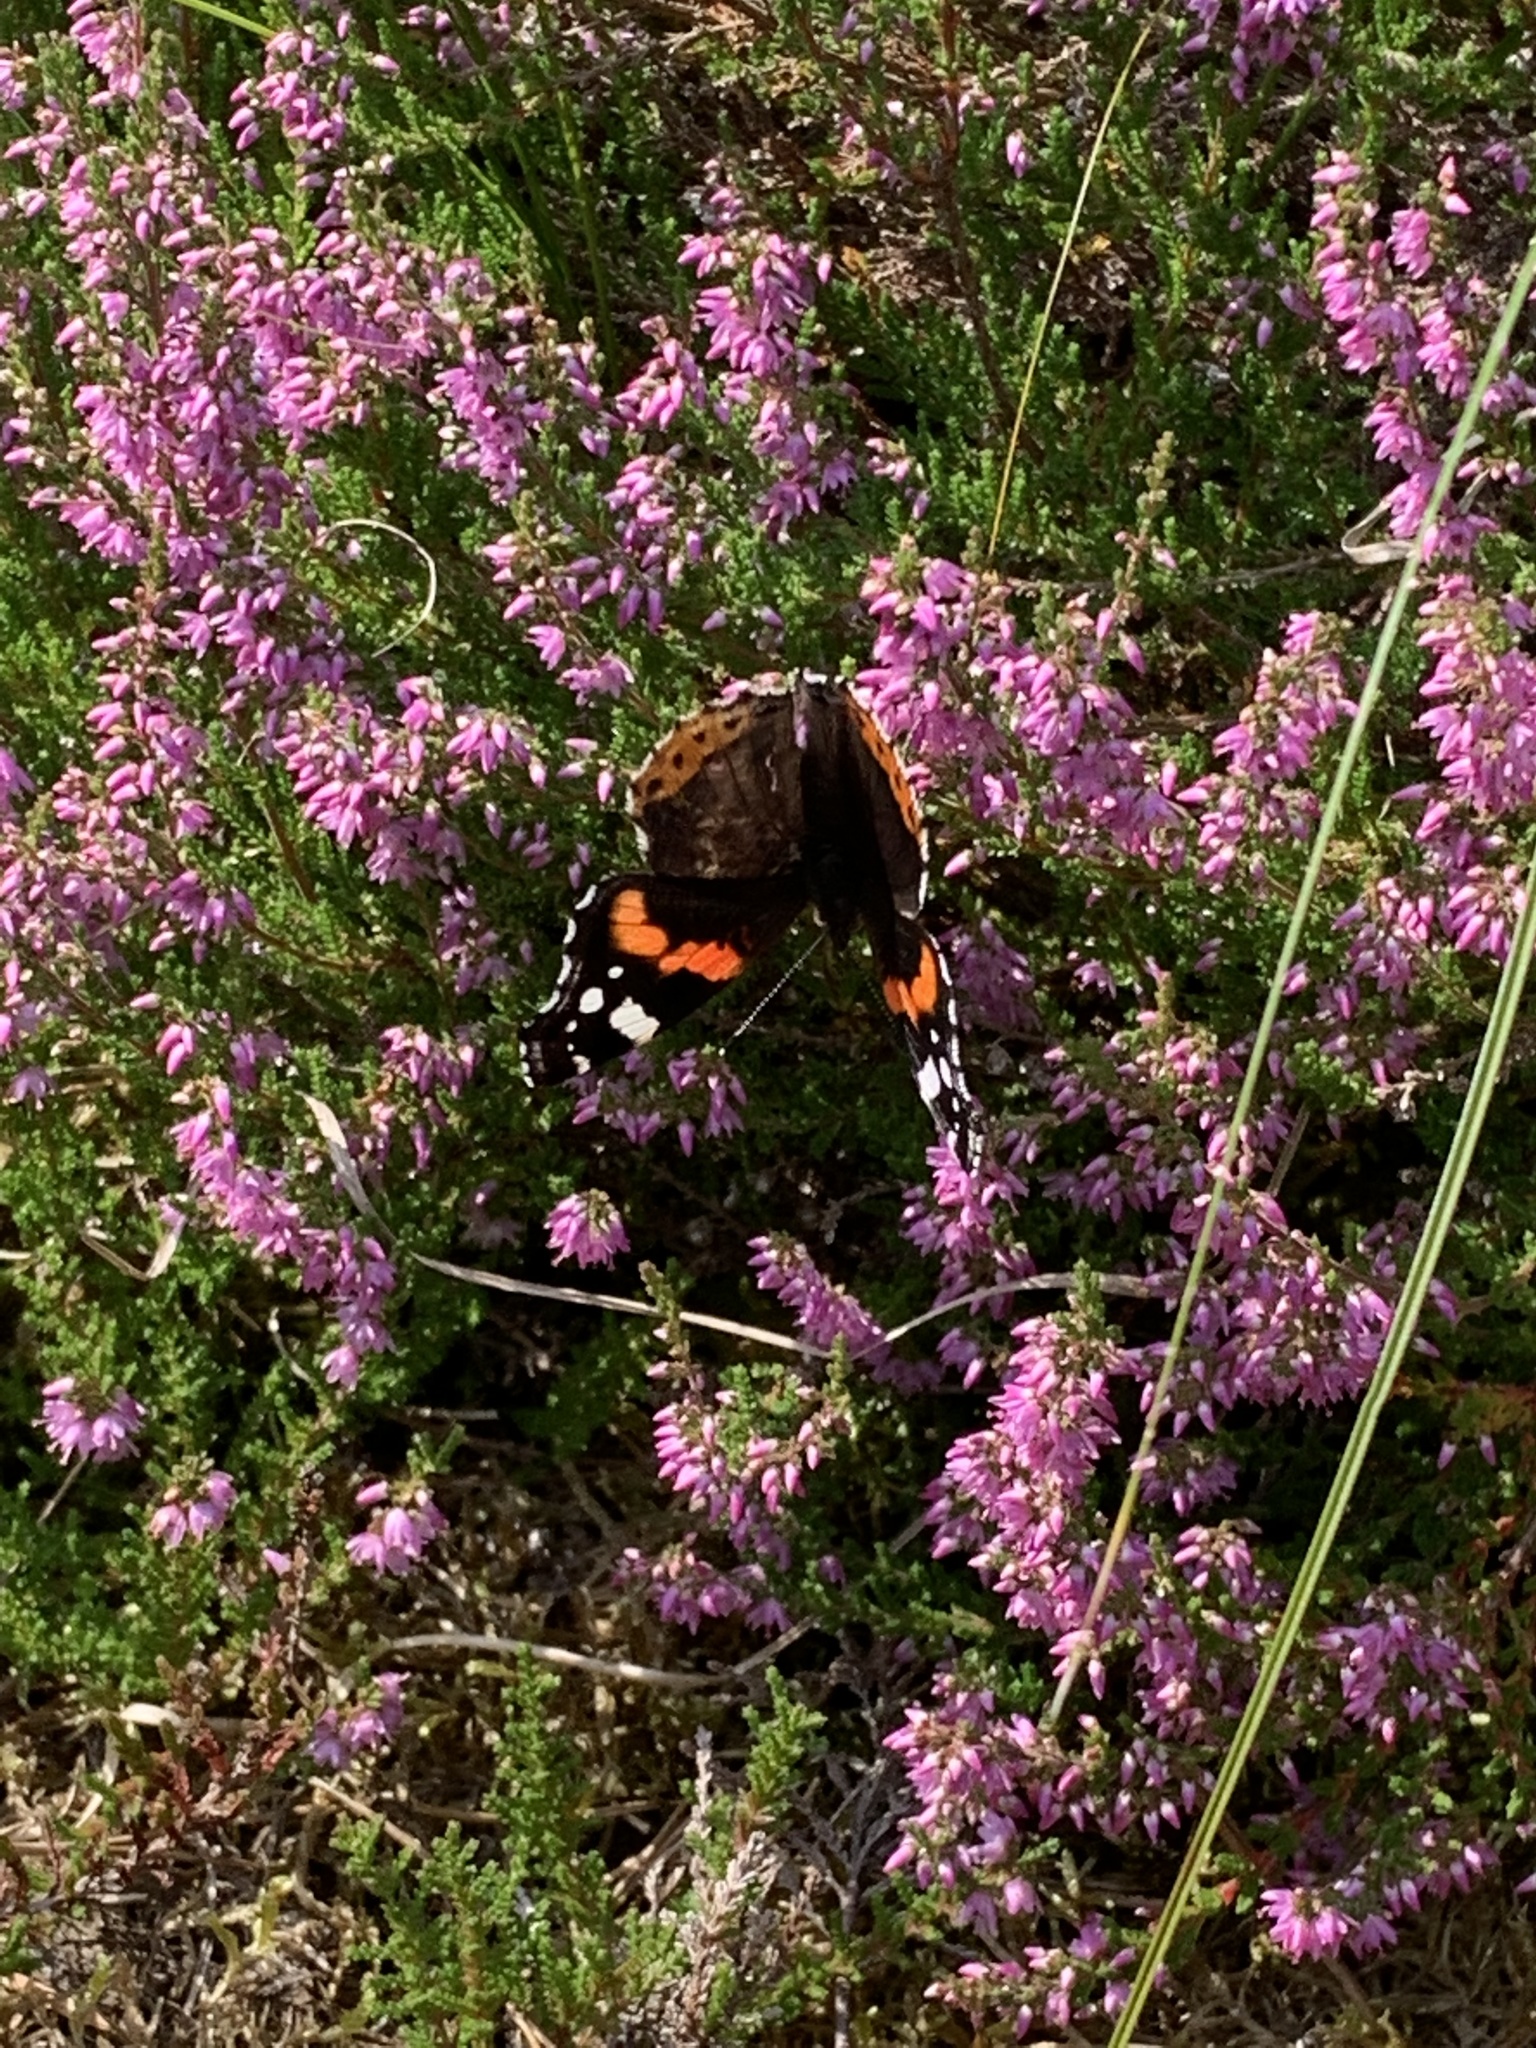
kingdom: Animalia
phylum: Arthropoda
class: Insecta
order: Lepidoptera
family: Nymphalidae
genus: Vanessa
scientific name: Vanessa atalanta
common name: Red admiral
